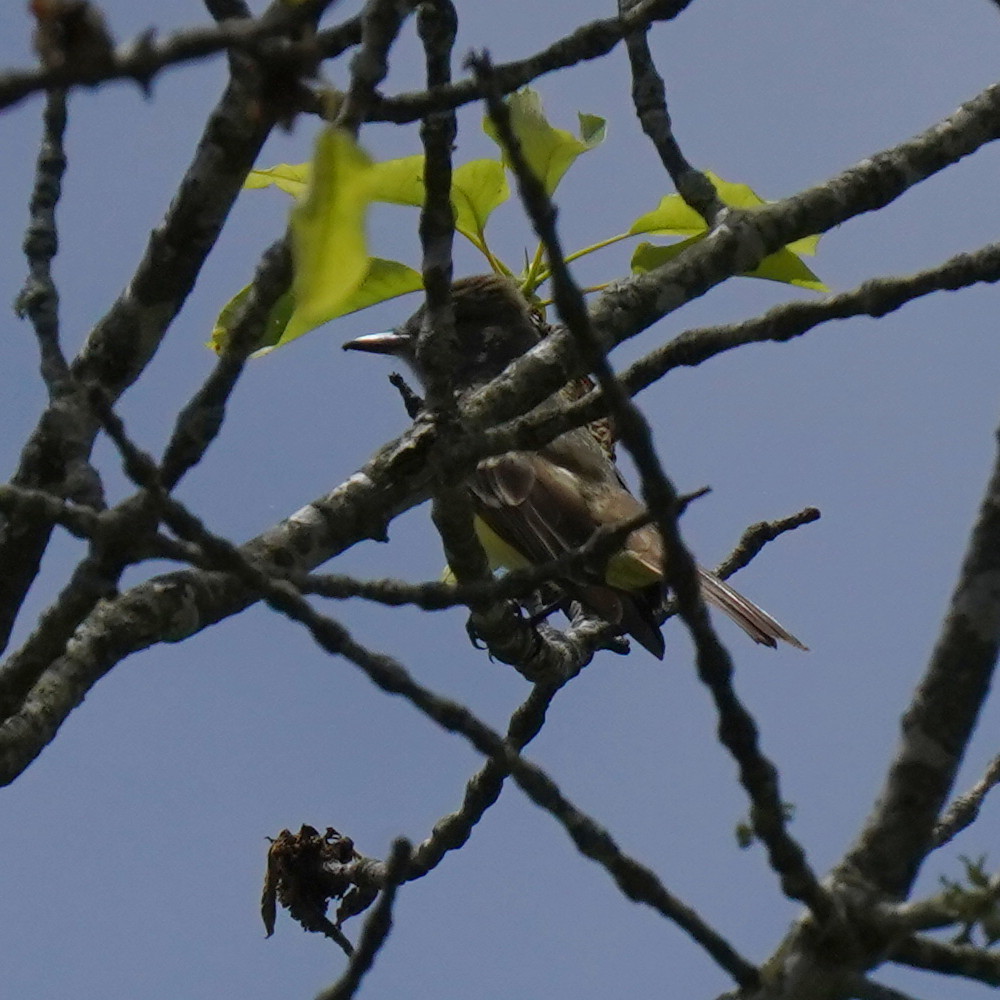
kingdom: Animalia
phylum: Chordata
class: Aves
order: Passeriformes
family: Tyrannidae
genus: Myiarchus
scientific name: Myiarchus crinitus
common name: Great crested flycatcher
